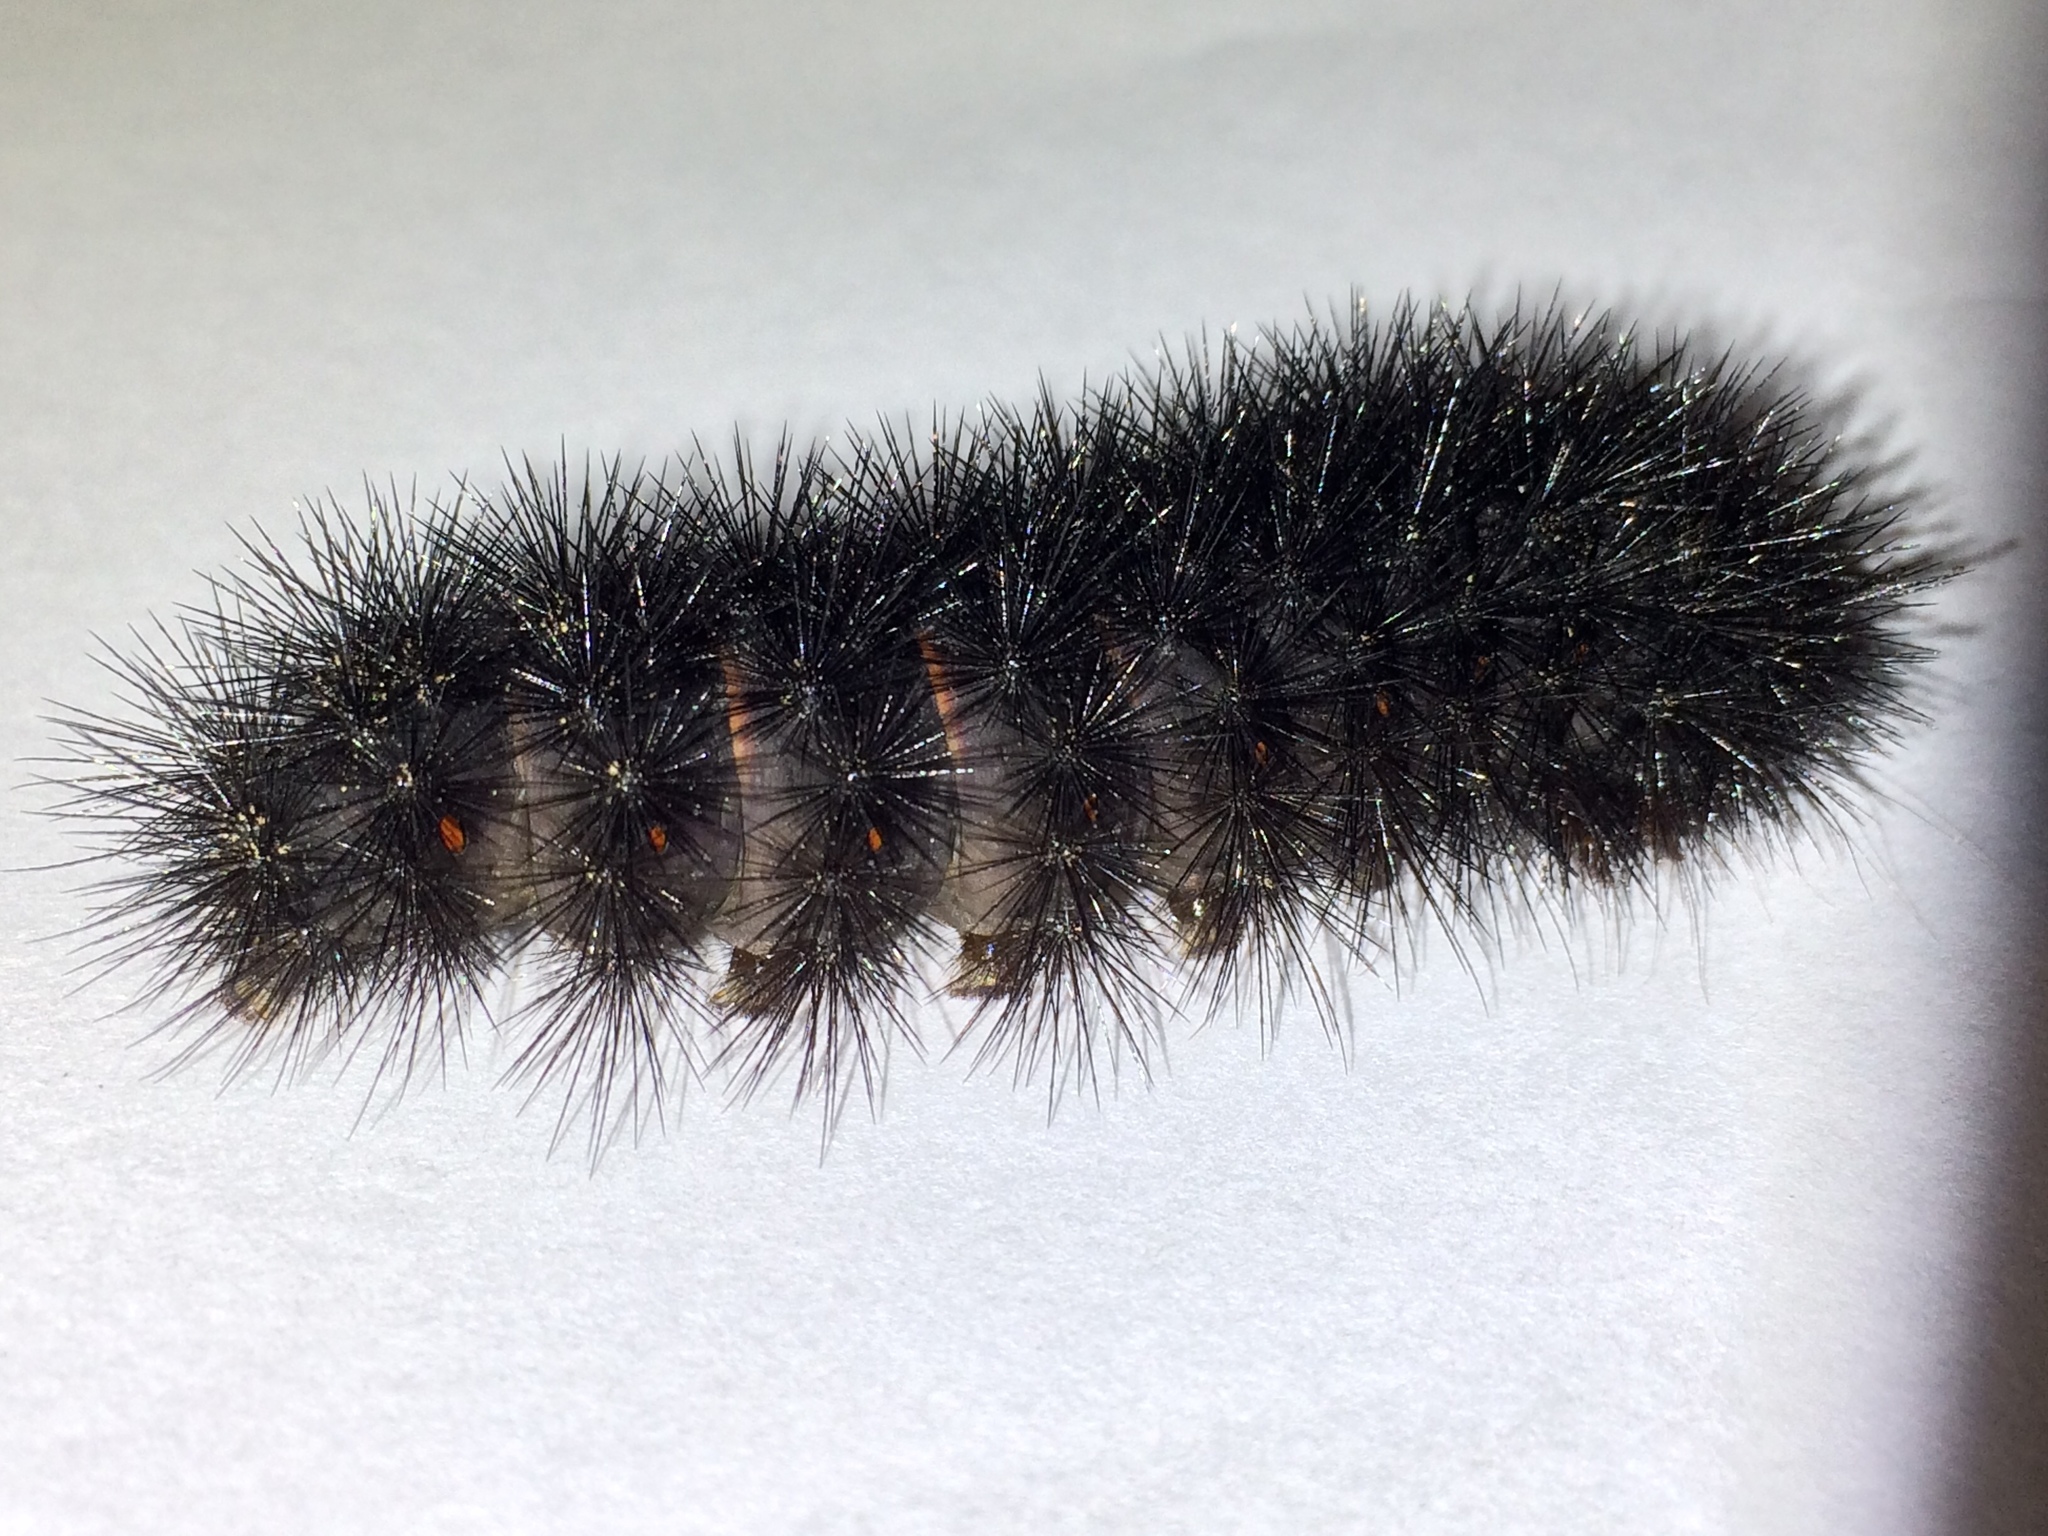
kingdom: Animalia
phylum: Arthropoda
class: Insecta
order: Lepidoptera
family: Erebidae
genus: Hypercompe
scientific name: Hypercompe scribonia
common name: Giant leopard moth
